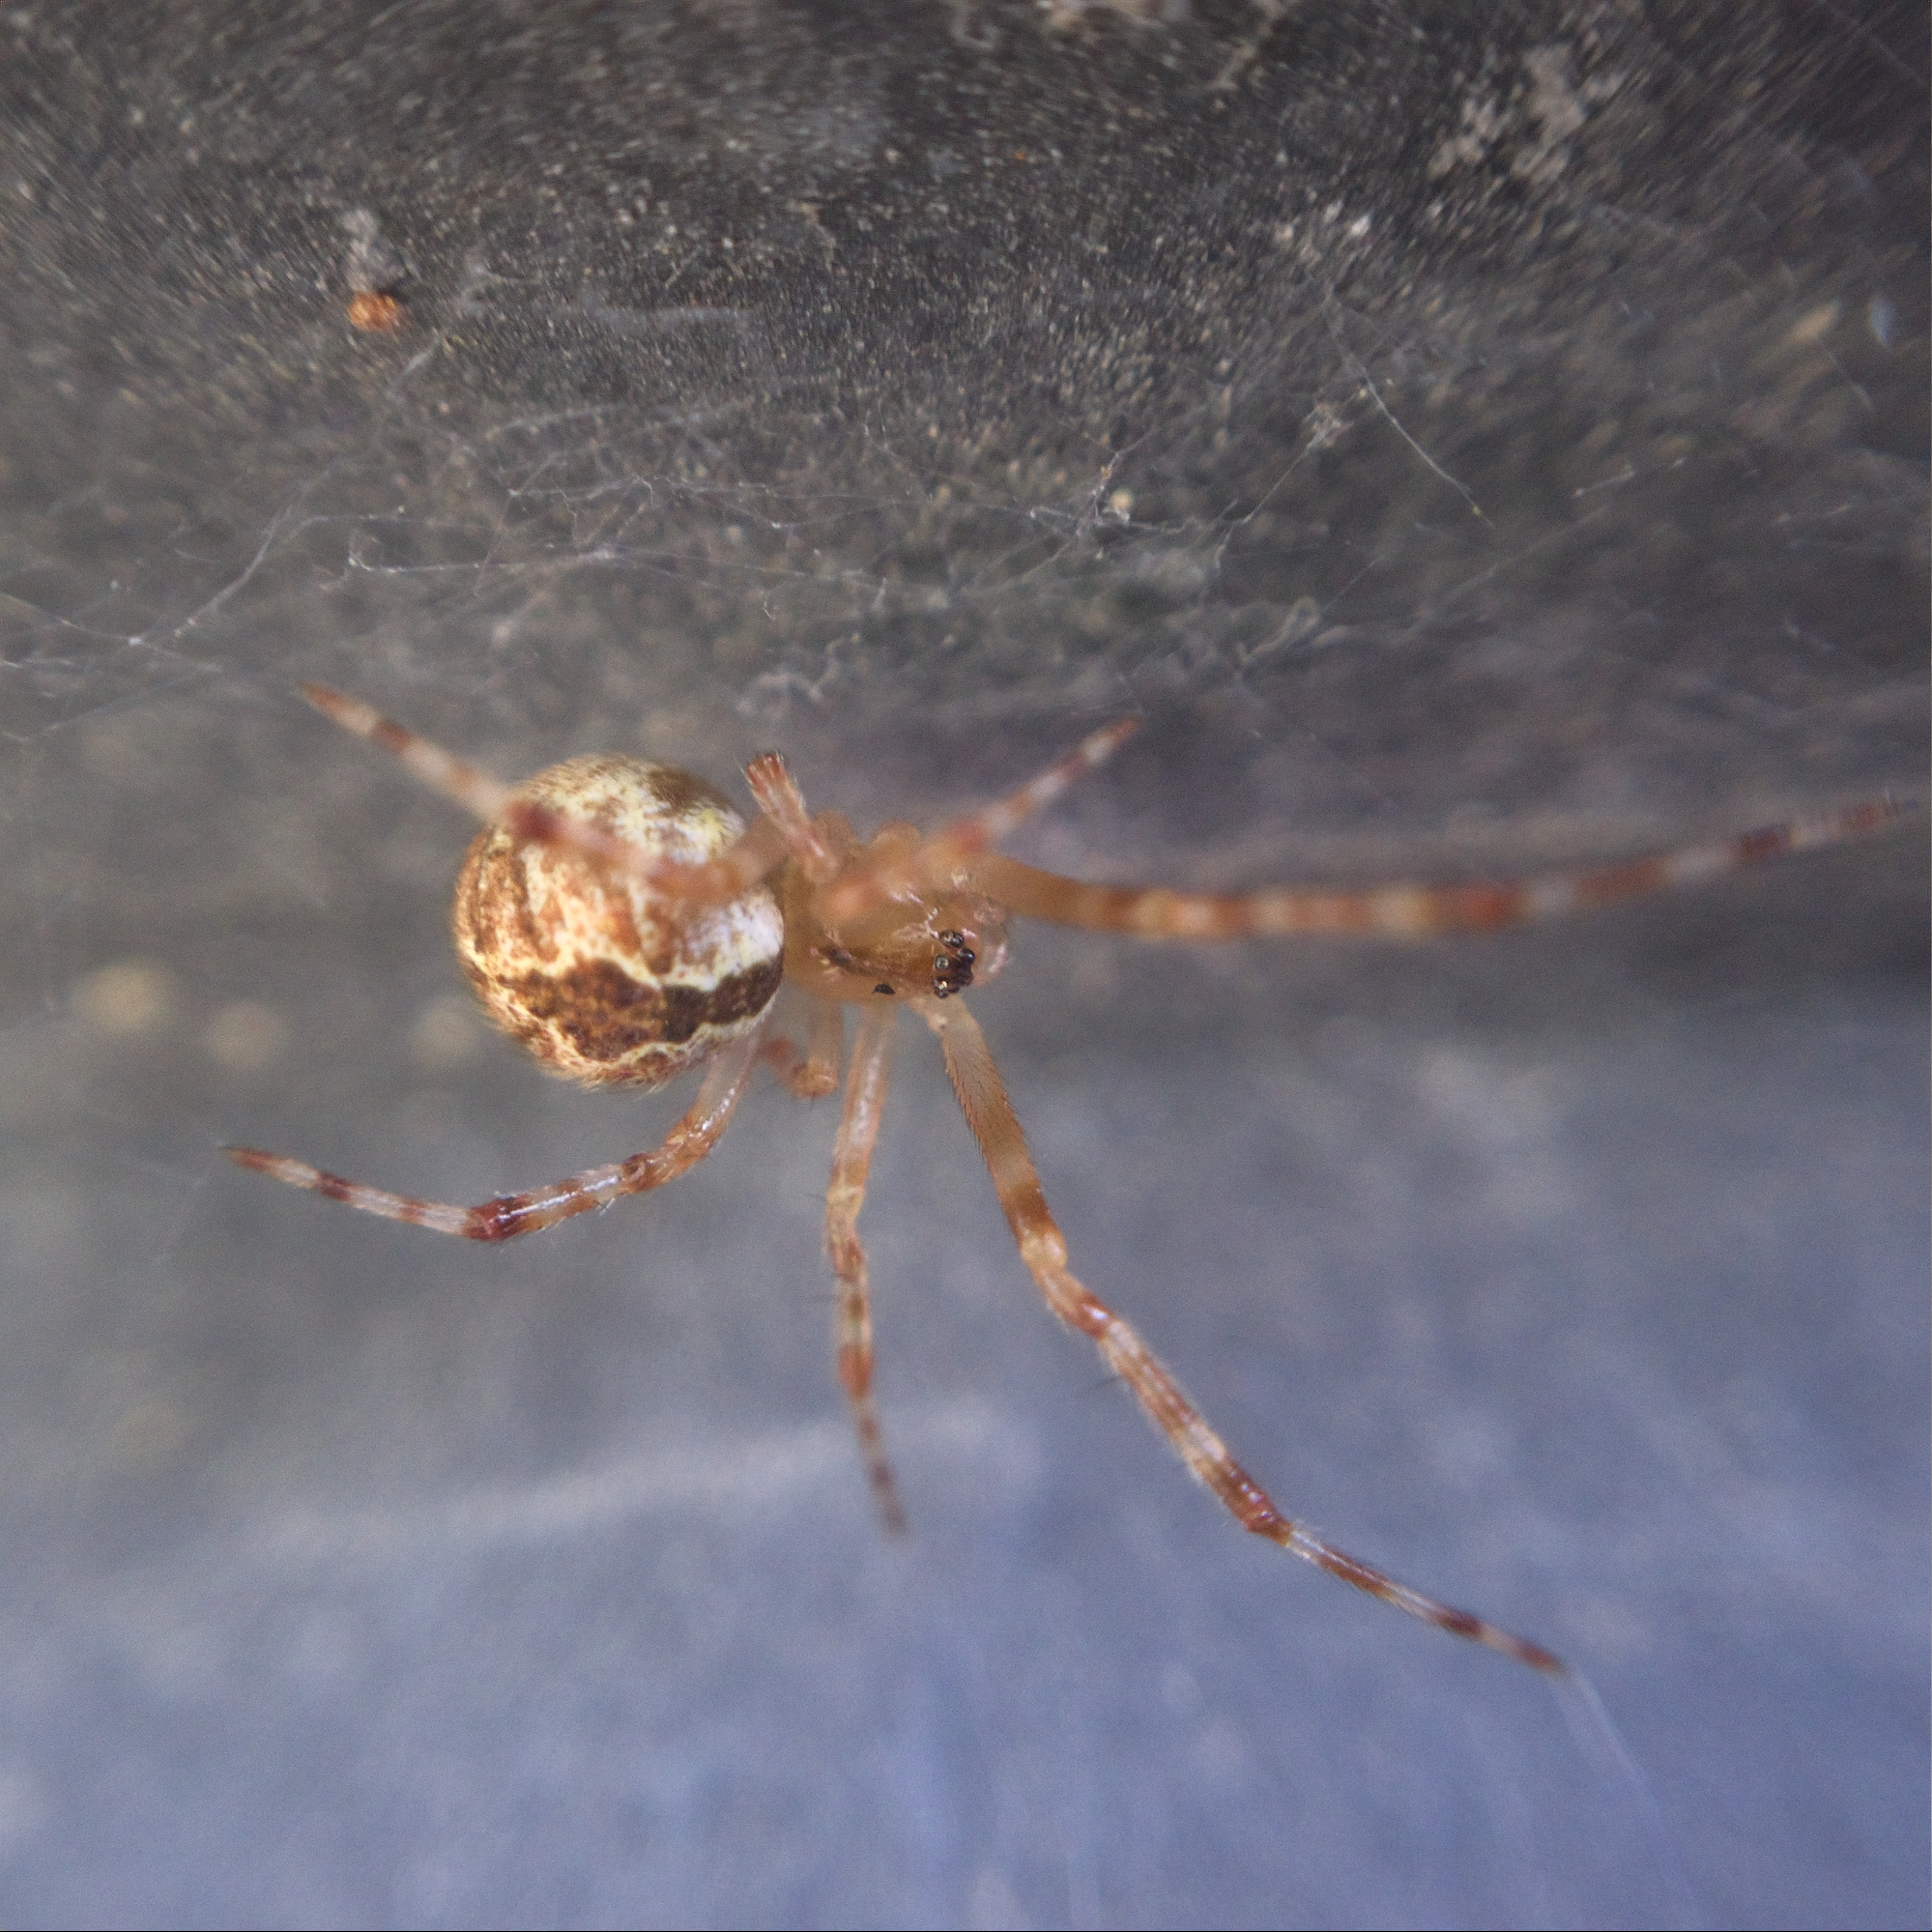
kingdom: Animalia
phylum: Arthropoda
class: Arachnida
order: Araneae
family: Theridiidae
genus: Cryptachaea
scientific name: Cryptachaea veruculata
